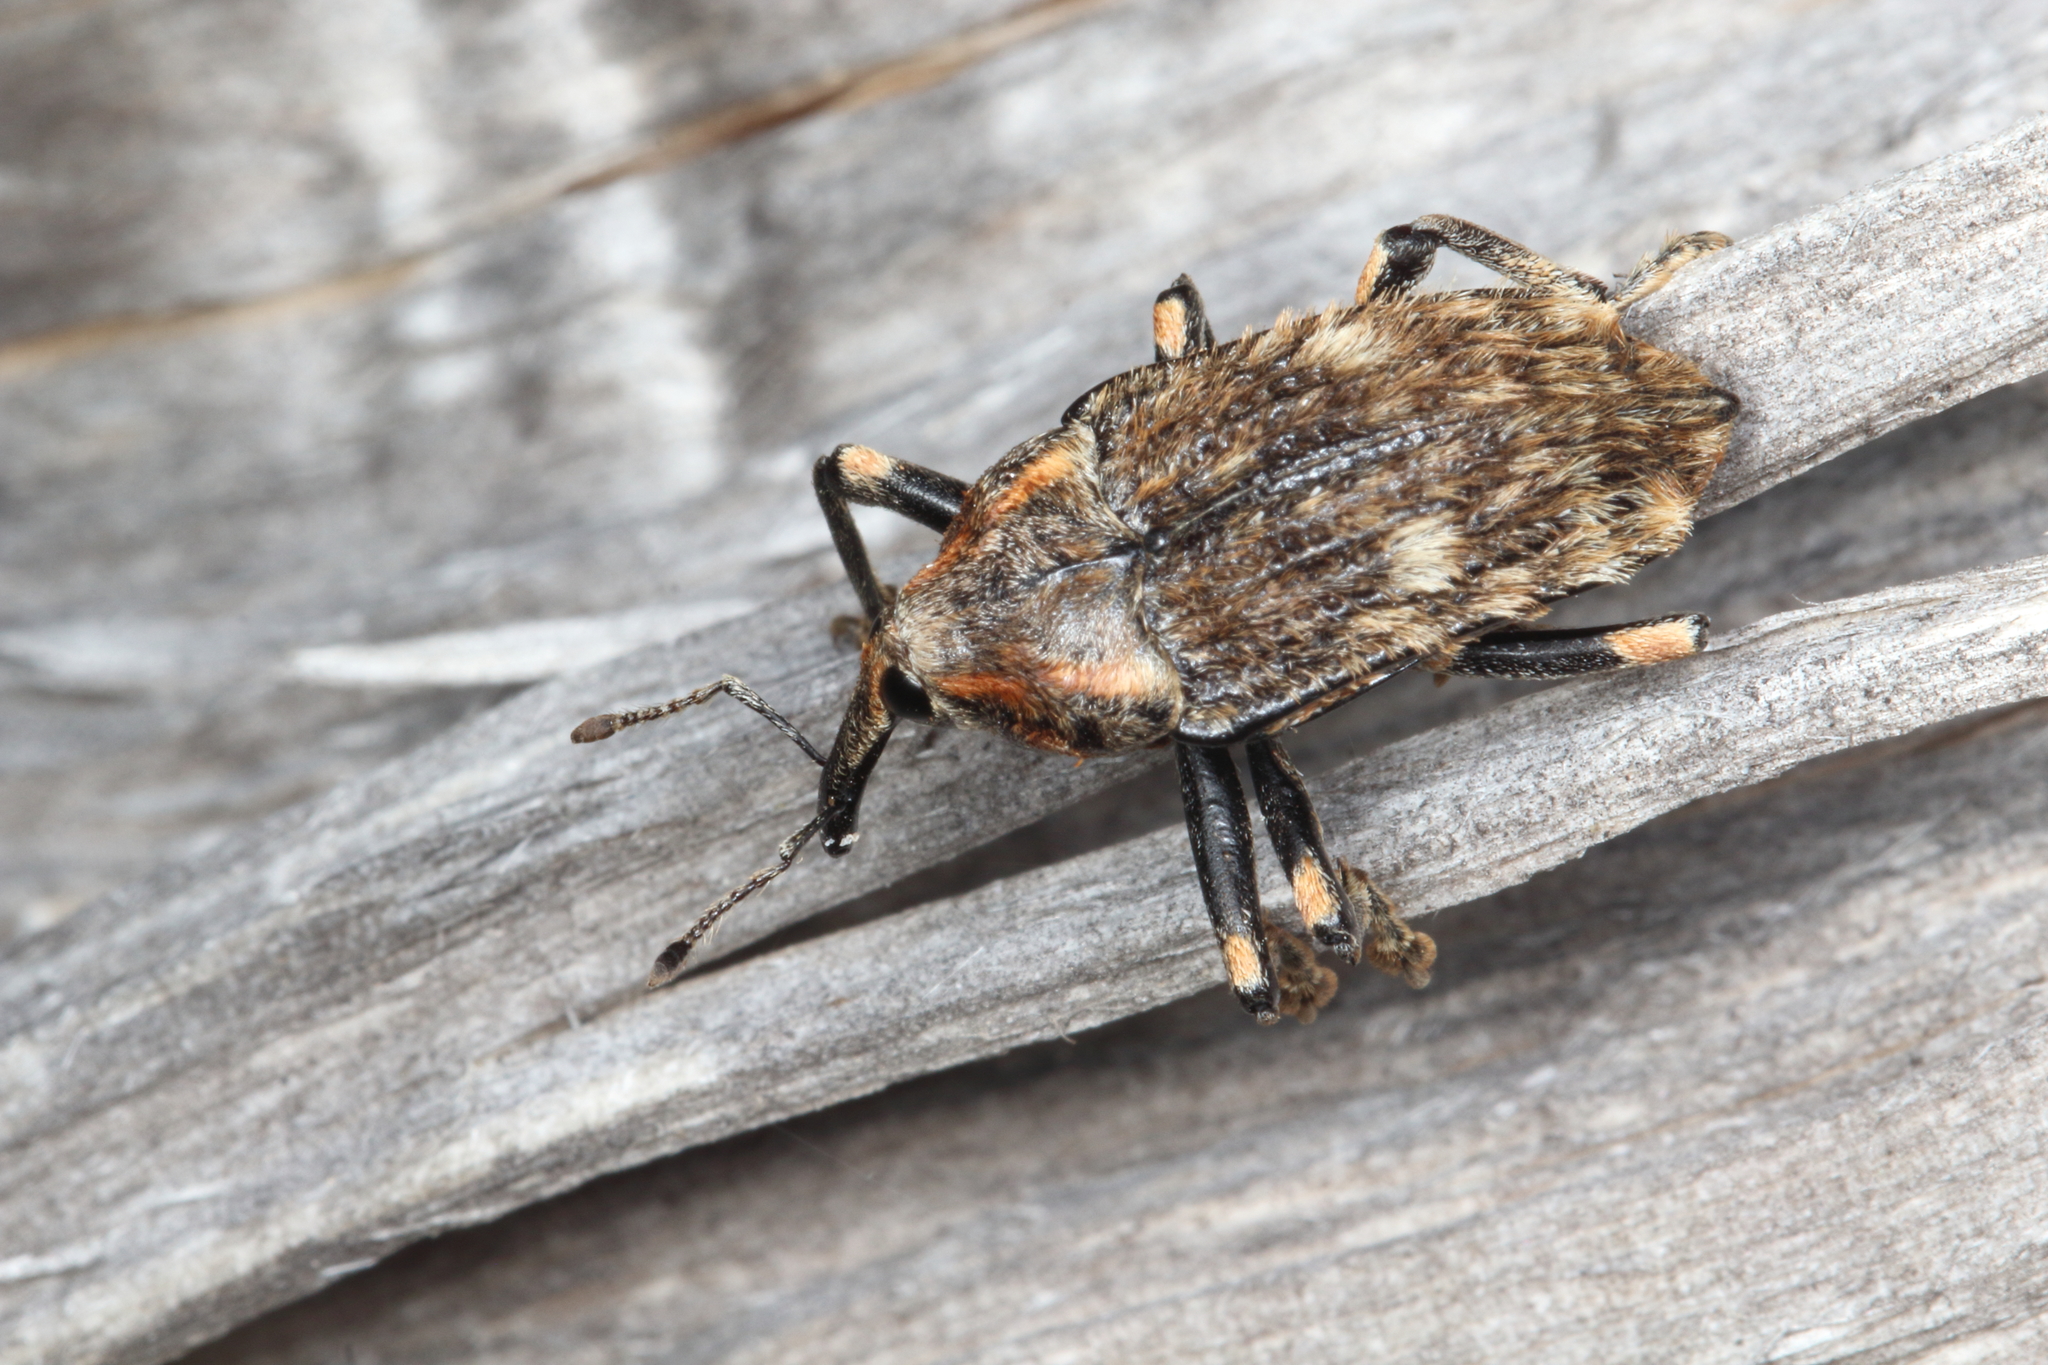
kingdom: Animalia
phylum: Arthropoda
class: Insecta
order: Coleoptera
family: Curculionidae
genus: Rhynchodes
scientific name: Rhynchodes ursus
